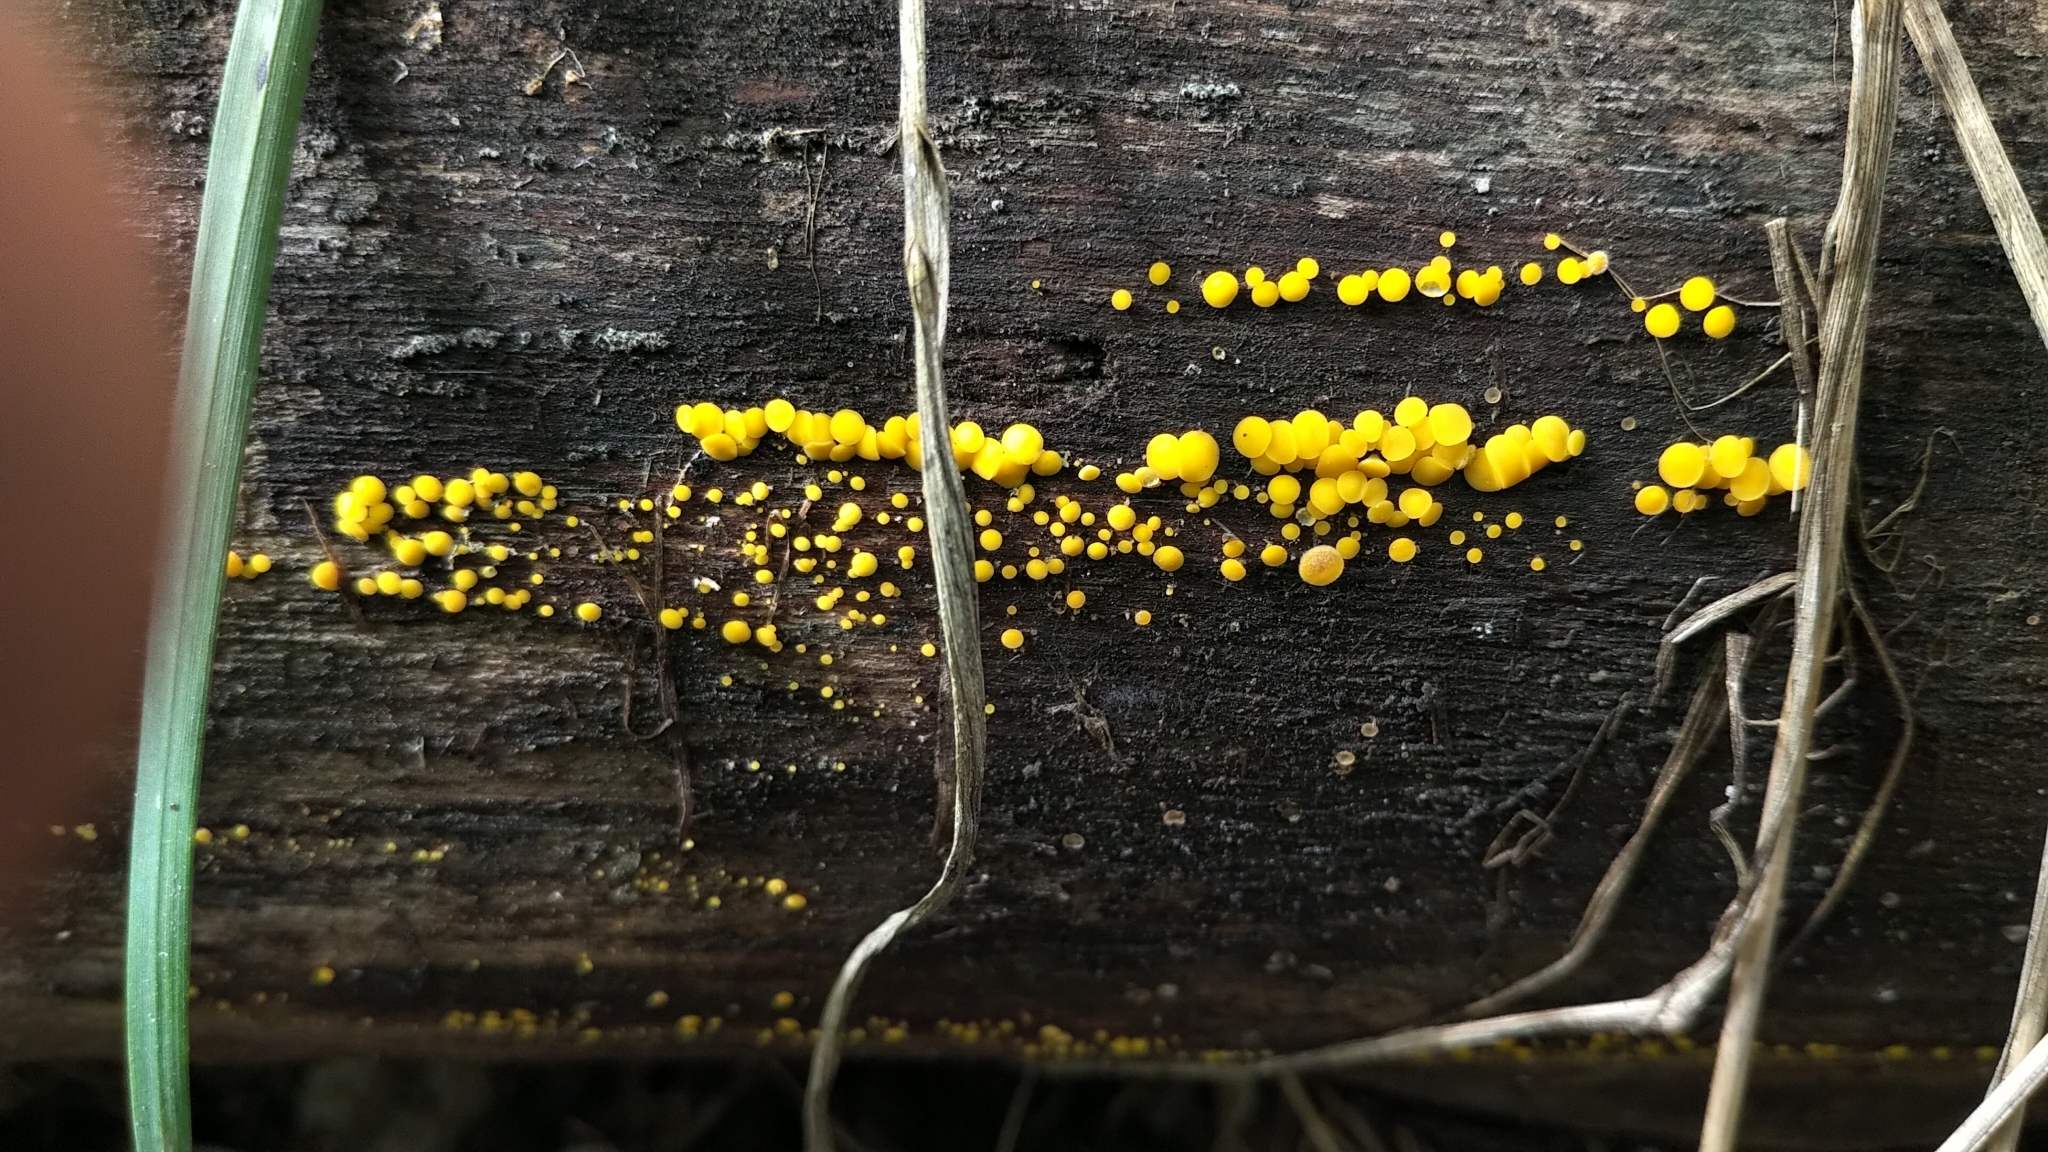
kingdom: Fungi
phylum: Ascomycota
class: Leotiomycetes
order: Helotiales
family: Pezizellaceae
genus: Calycina
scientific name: Calycina citrina
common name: Yellow fairy cups
